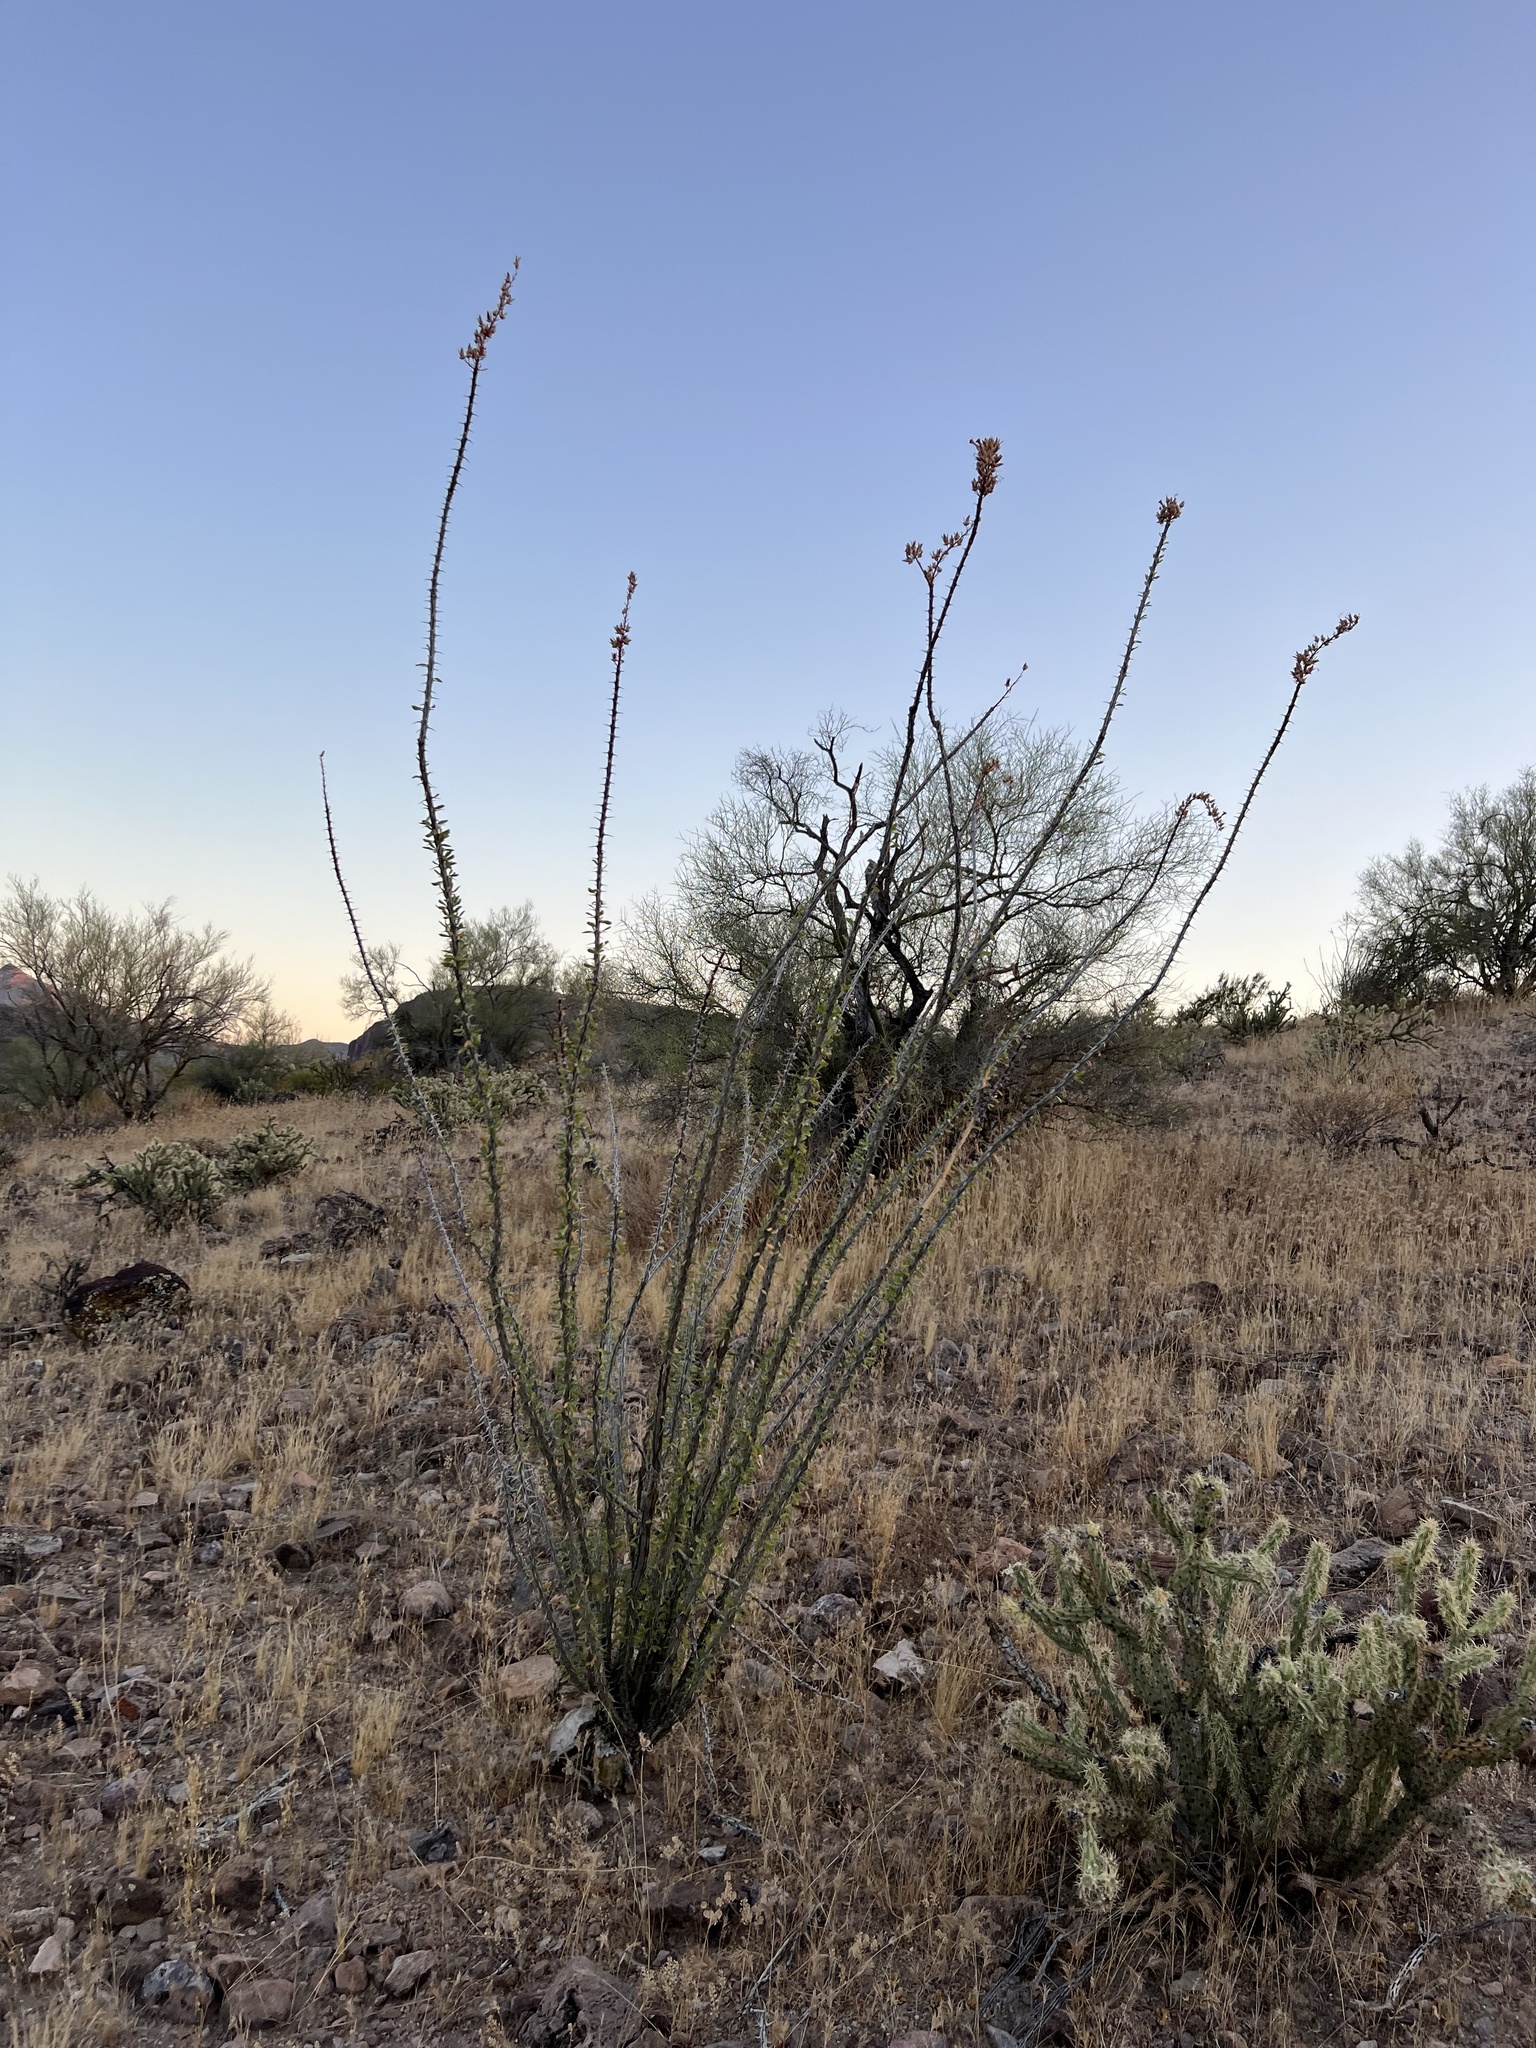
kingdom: Plantae
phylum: Tracheophyta
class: Magnoliopsida
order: Ericales
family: Fouquieriaceae
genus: Fouquieria
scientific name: Fouquieria splendens
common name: Vine-cactus
